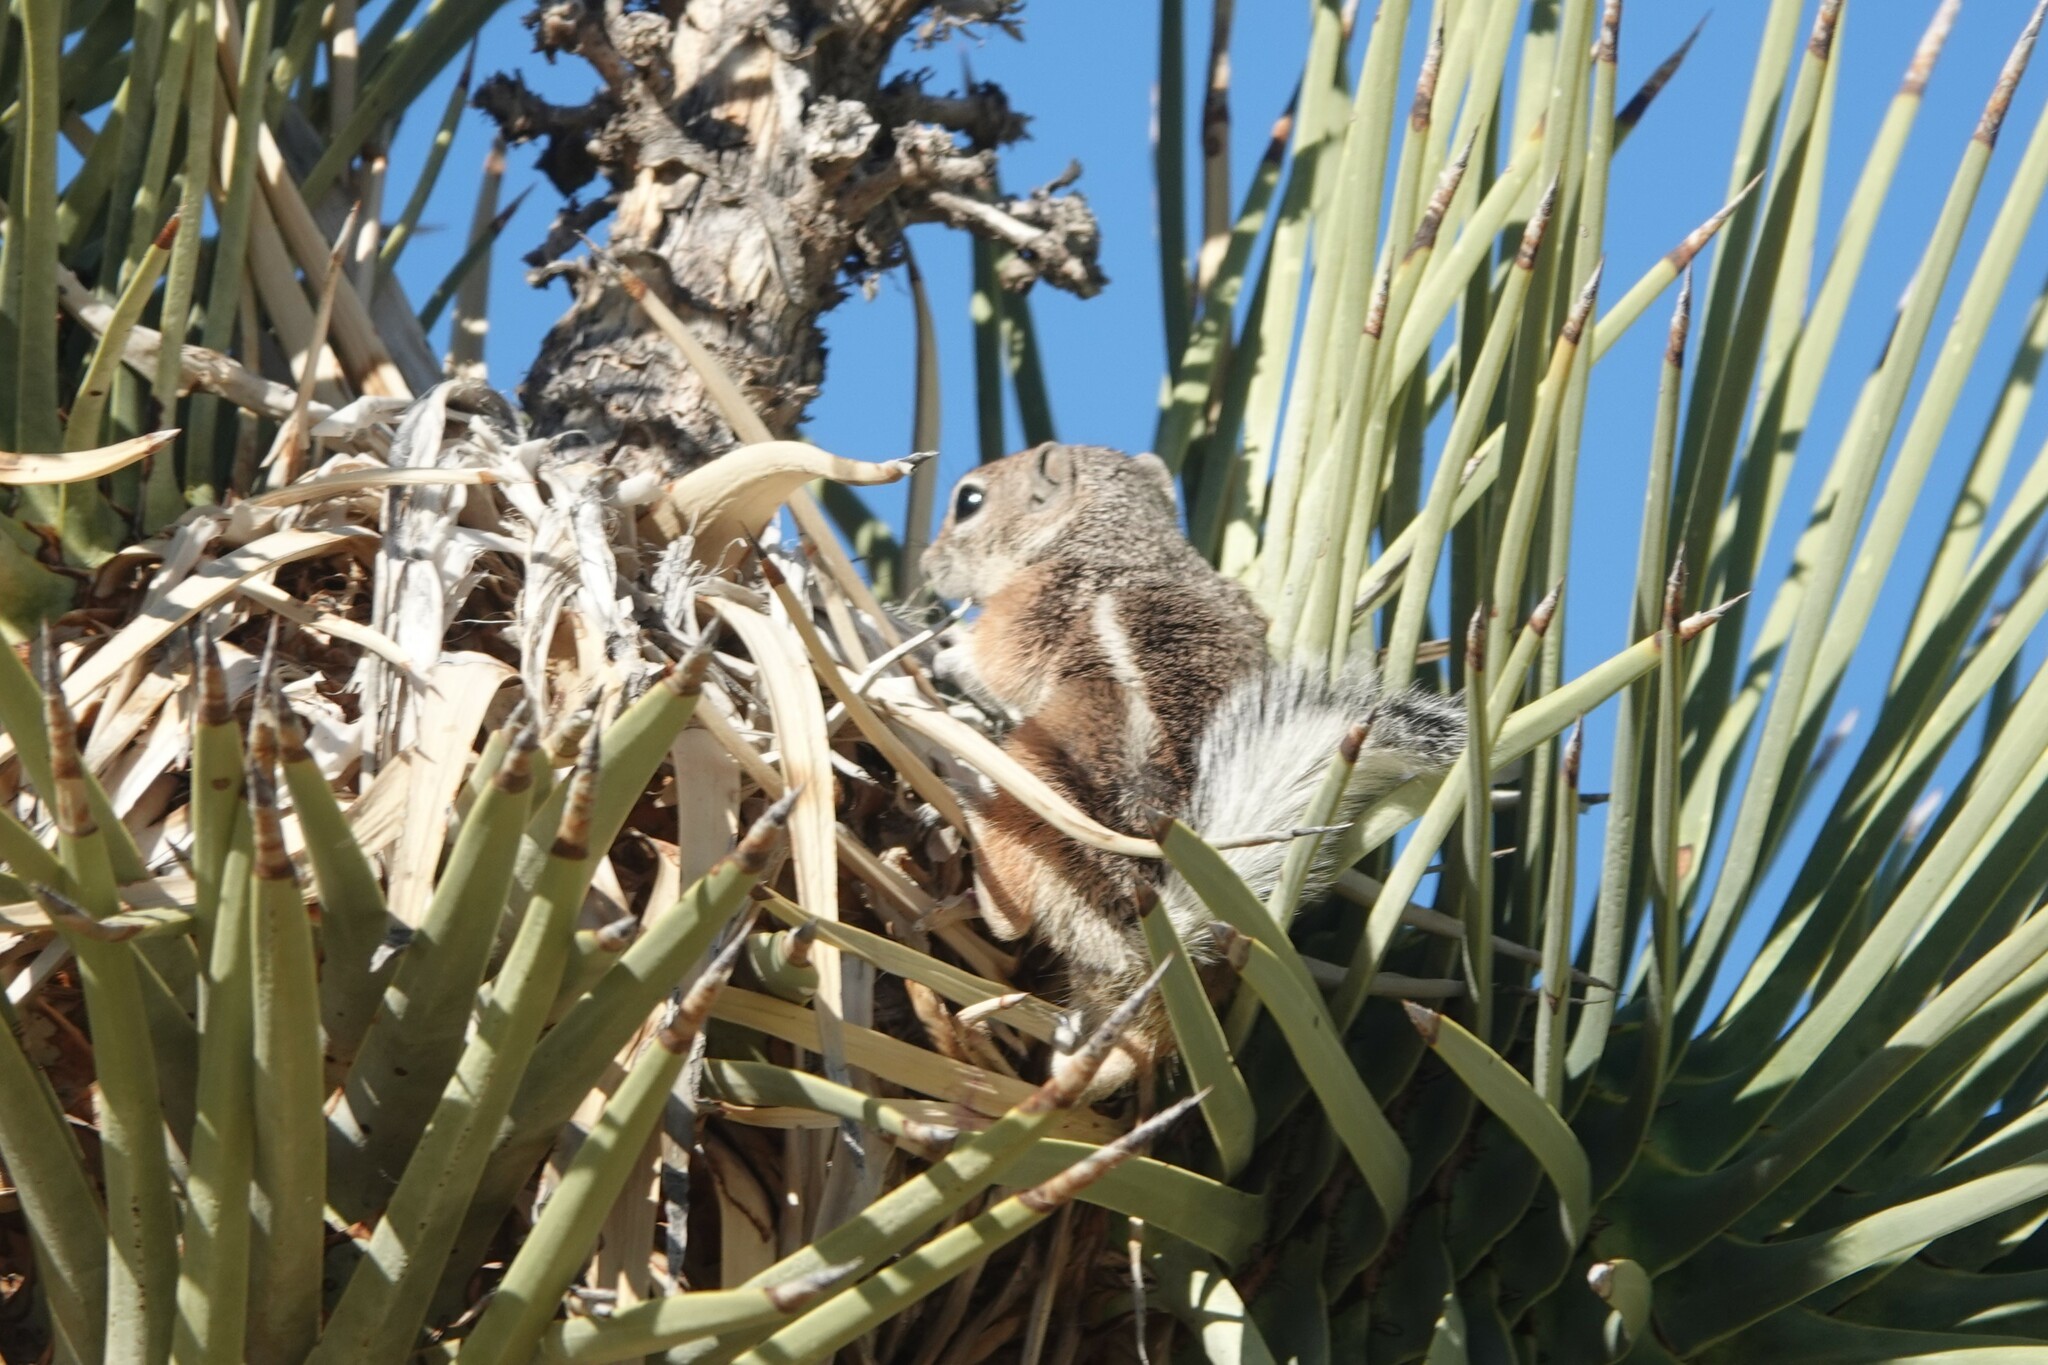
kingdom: Animalia
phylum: Chordata
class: Mammalia
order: Rodentia
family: Sciuridae
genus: Ammospermophilus
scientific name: Ammospermophilus leucurus
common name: White-tailed antelope squirrel
